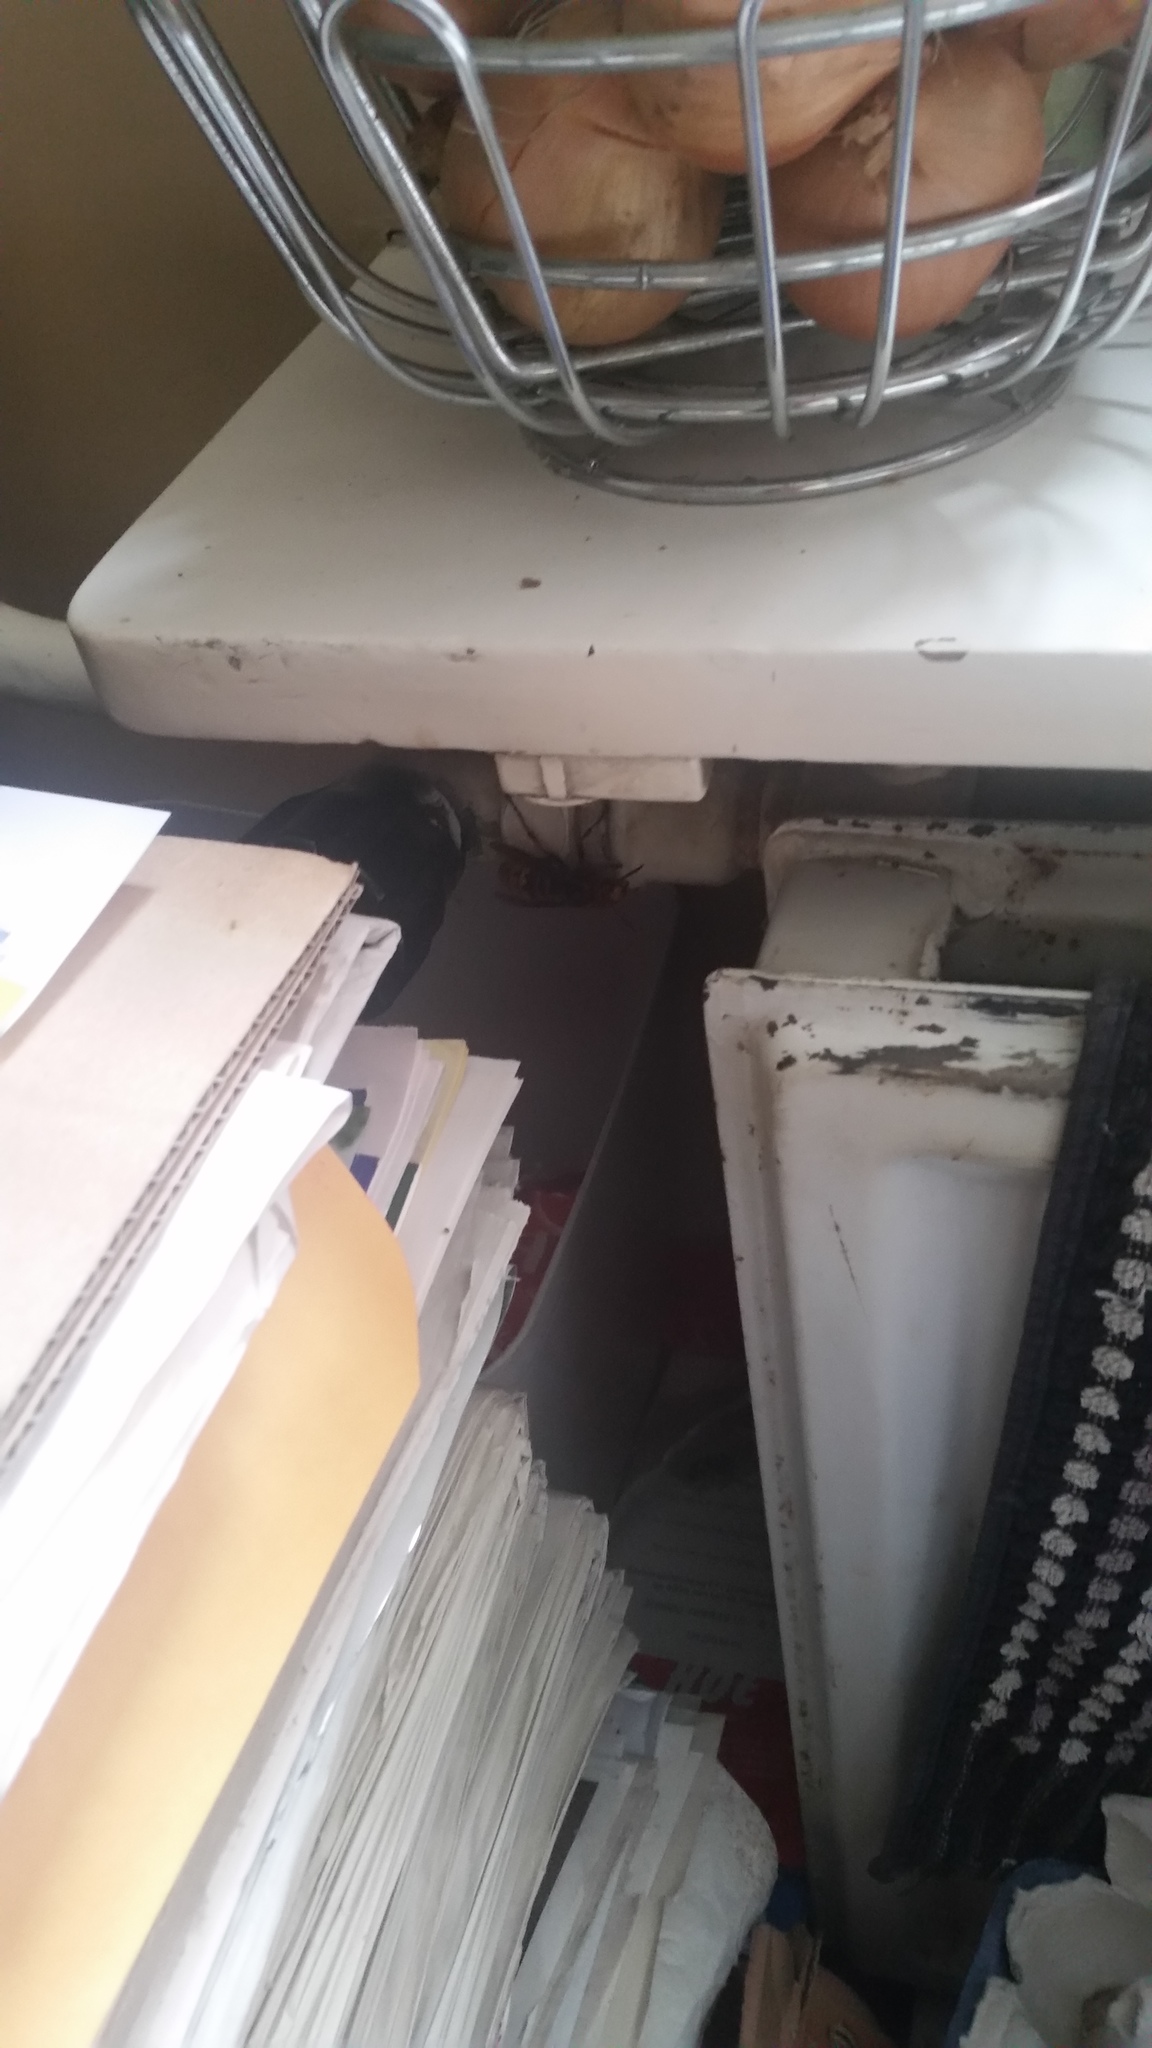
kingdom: Animalia
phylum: Arthropoda
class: Insecta
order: Hymenoptera
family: Vespidae
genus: Vespa
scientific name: Vespa crabro
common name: Hornet
